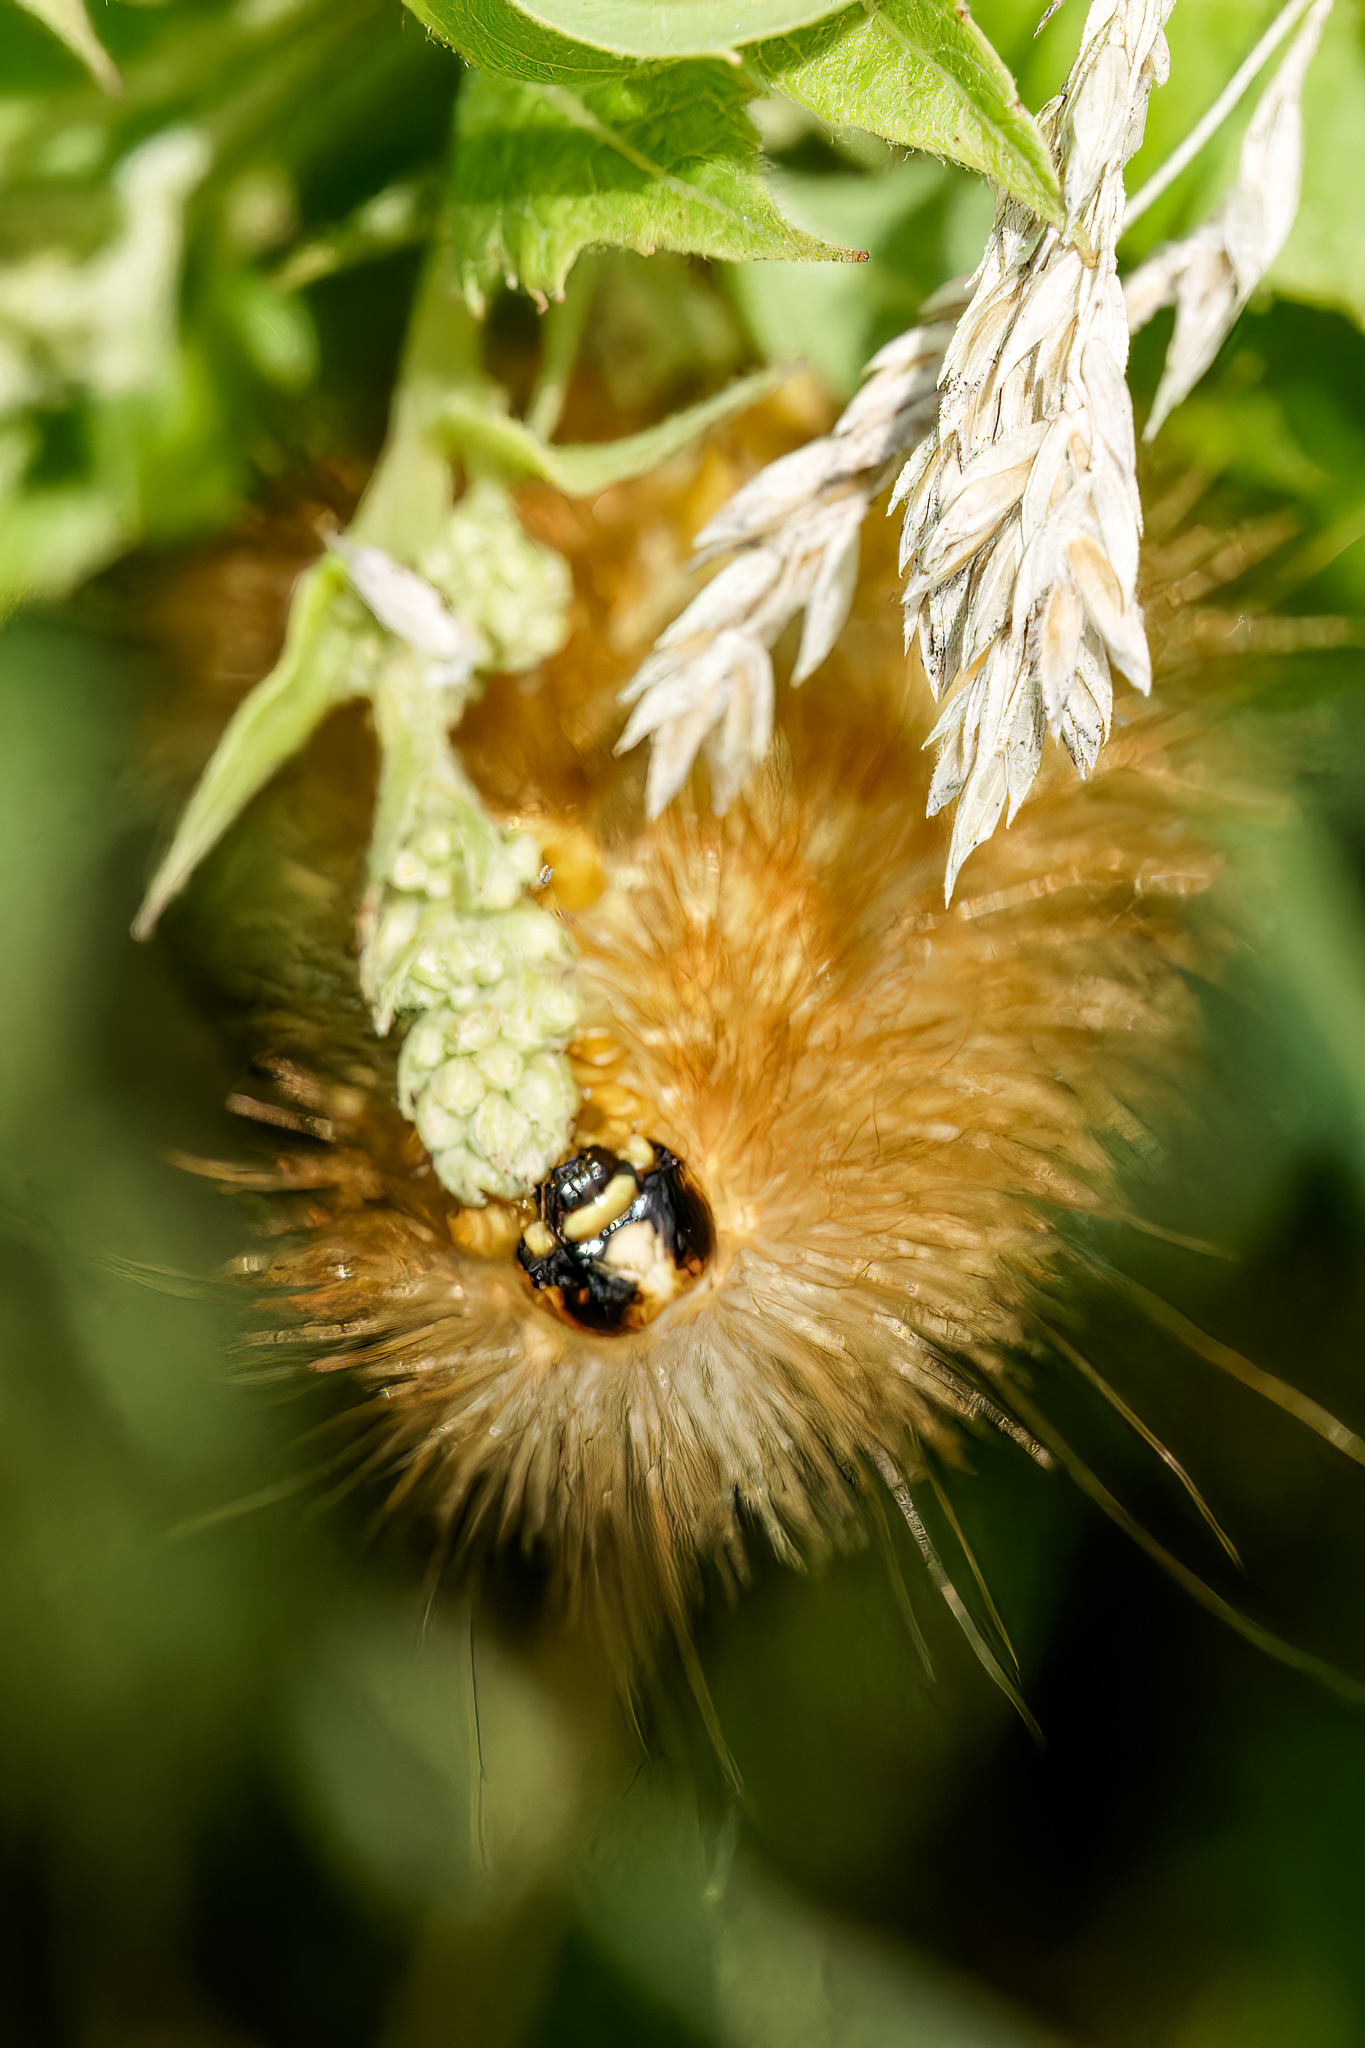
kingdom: Animalia
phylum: Arthropoda
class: Insecta
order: Lepidoptera
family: Erebidae
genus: Estigmene
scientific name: Estigmene acrea
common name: Salt marsh moth
